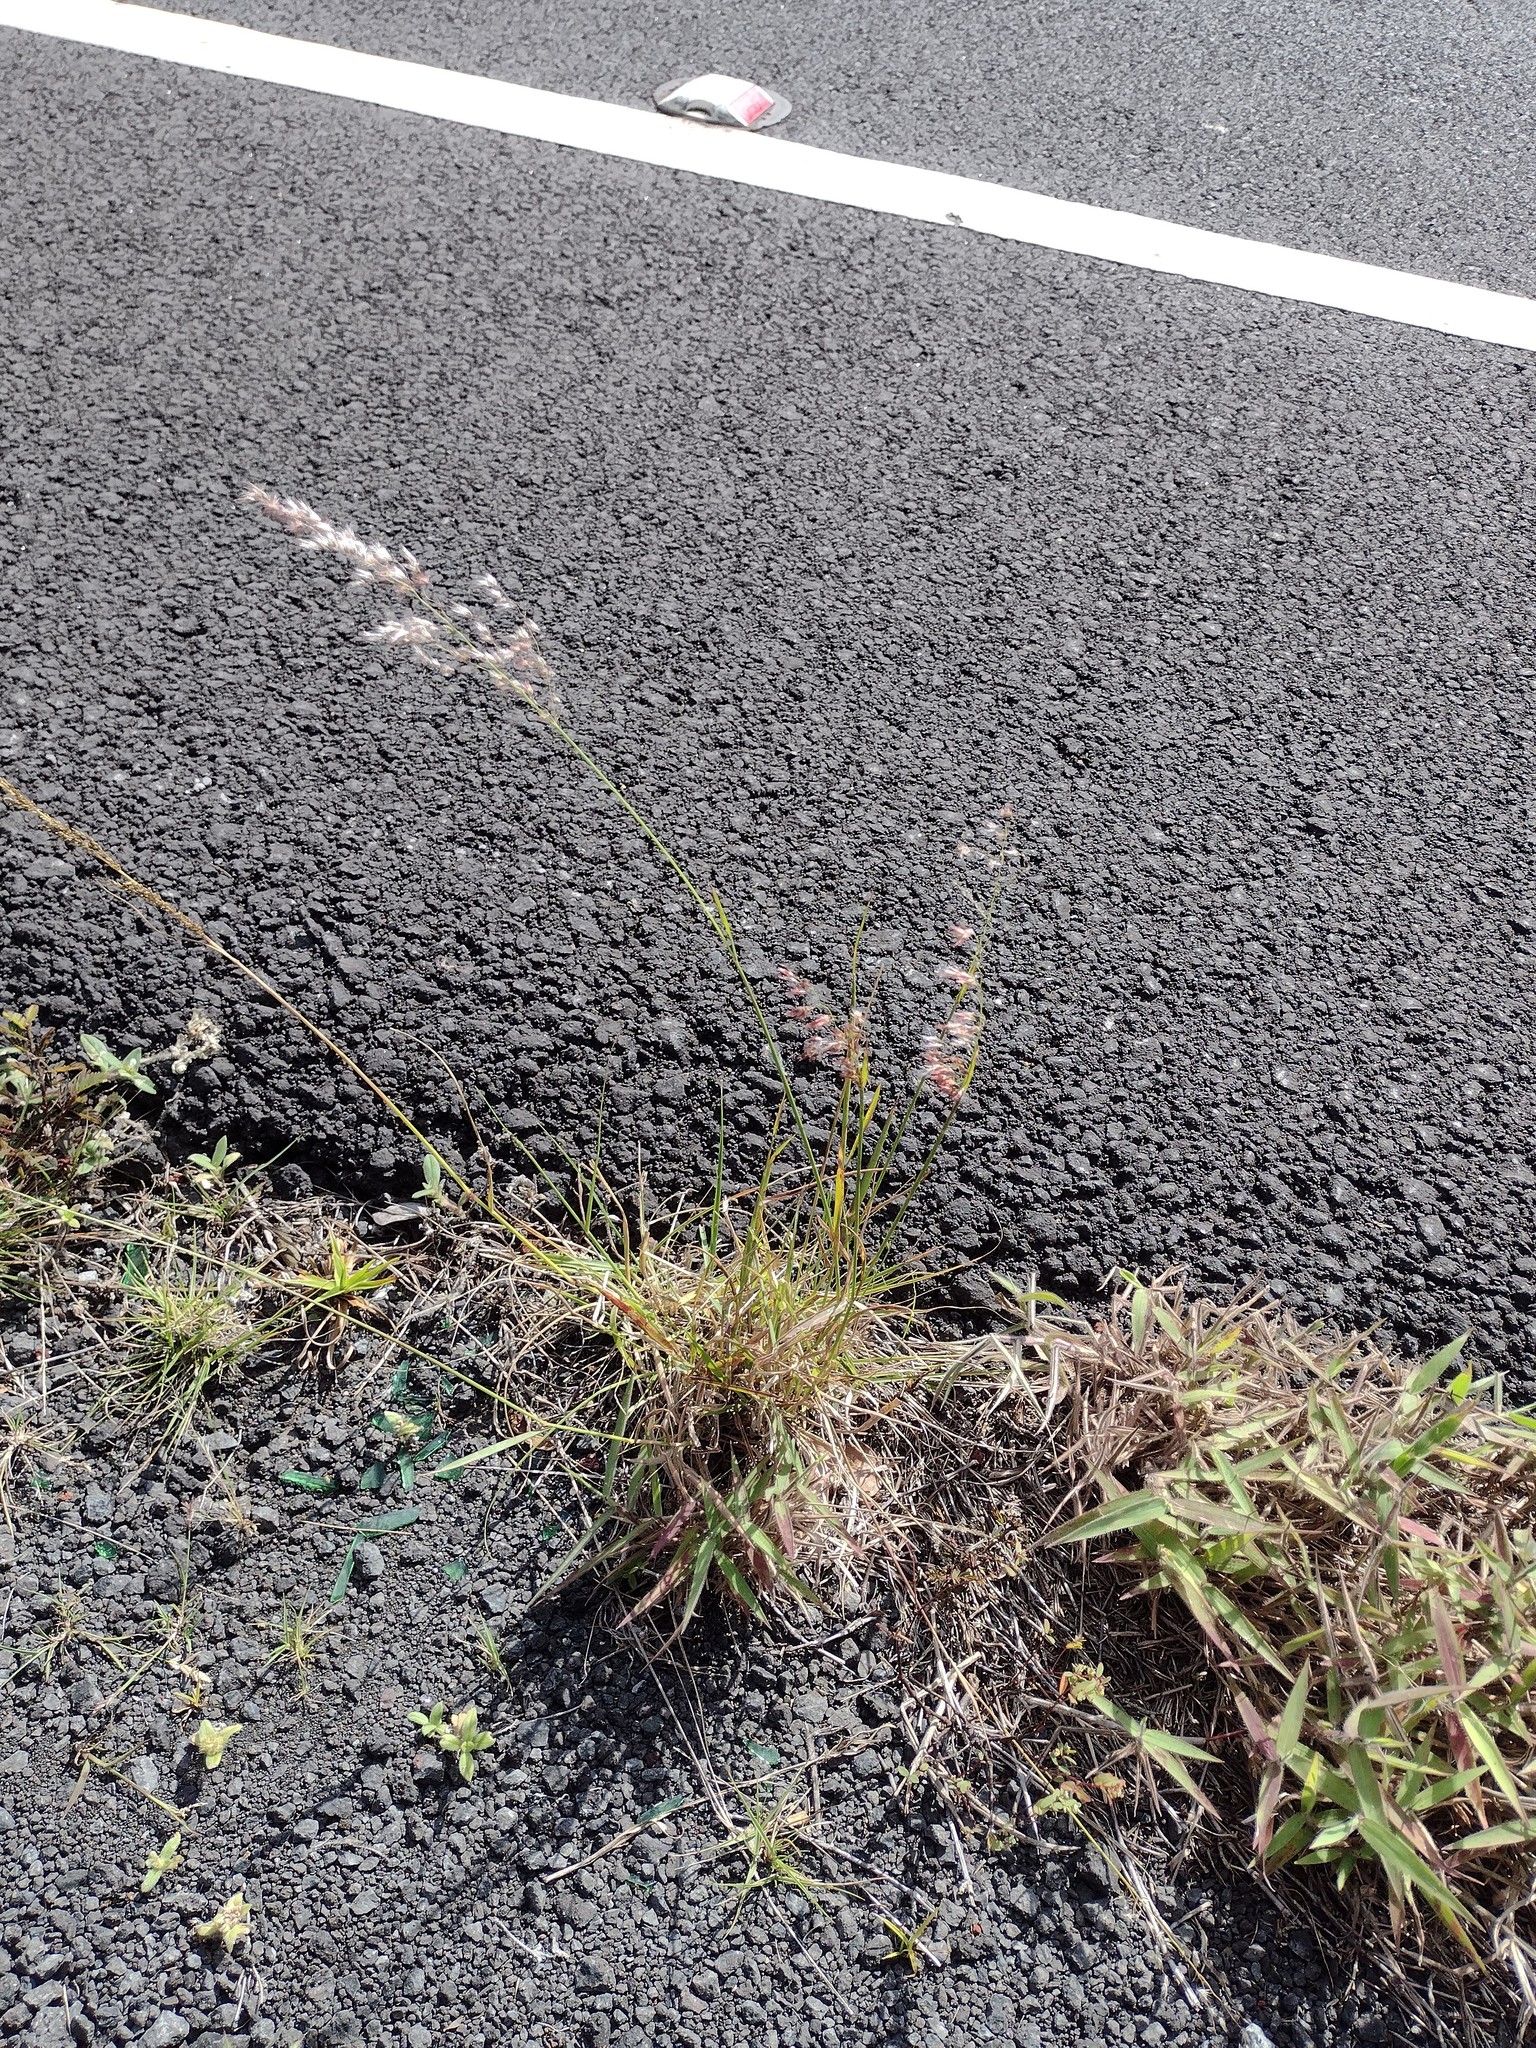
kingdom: Plantae
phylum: Tracheophyta
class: Liliopsida
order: Poales
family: Poaceae
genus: Melinis
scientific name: Melinis repens
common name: Rose natal grass
